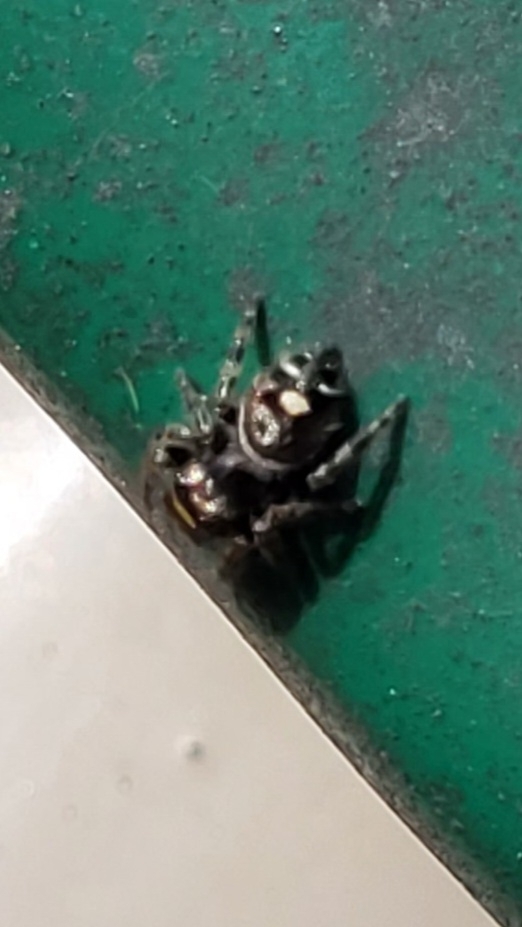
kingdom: Animalia
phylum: Arthropoda
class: Arachnida
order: Araneae
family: Salticidae
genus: Phidippus
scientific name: Phidippus audax
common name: Bold jumper
